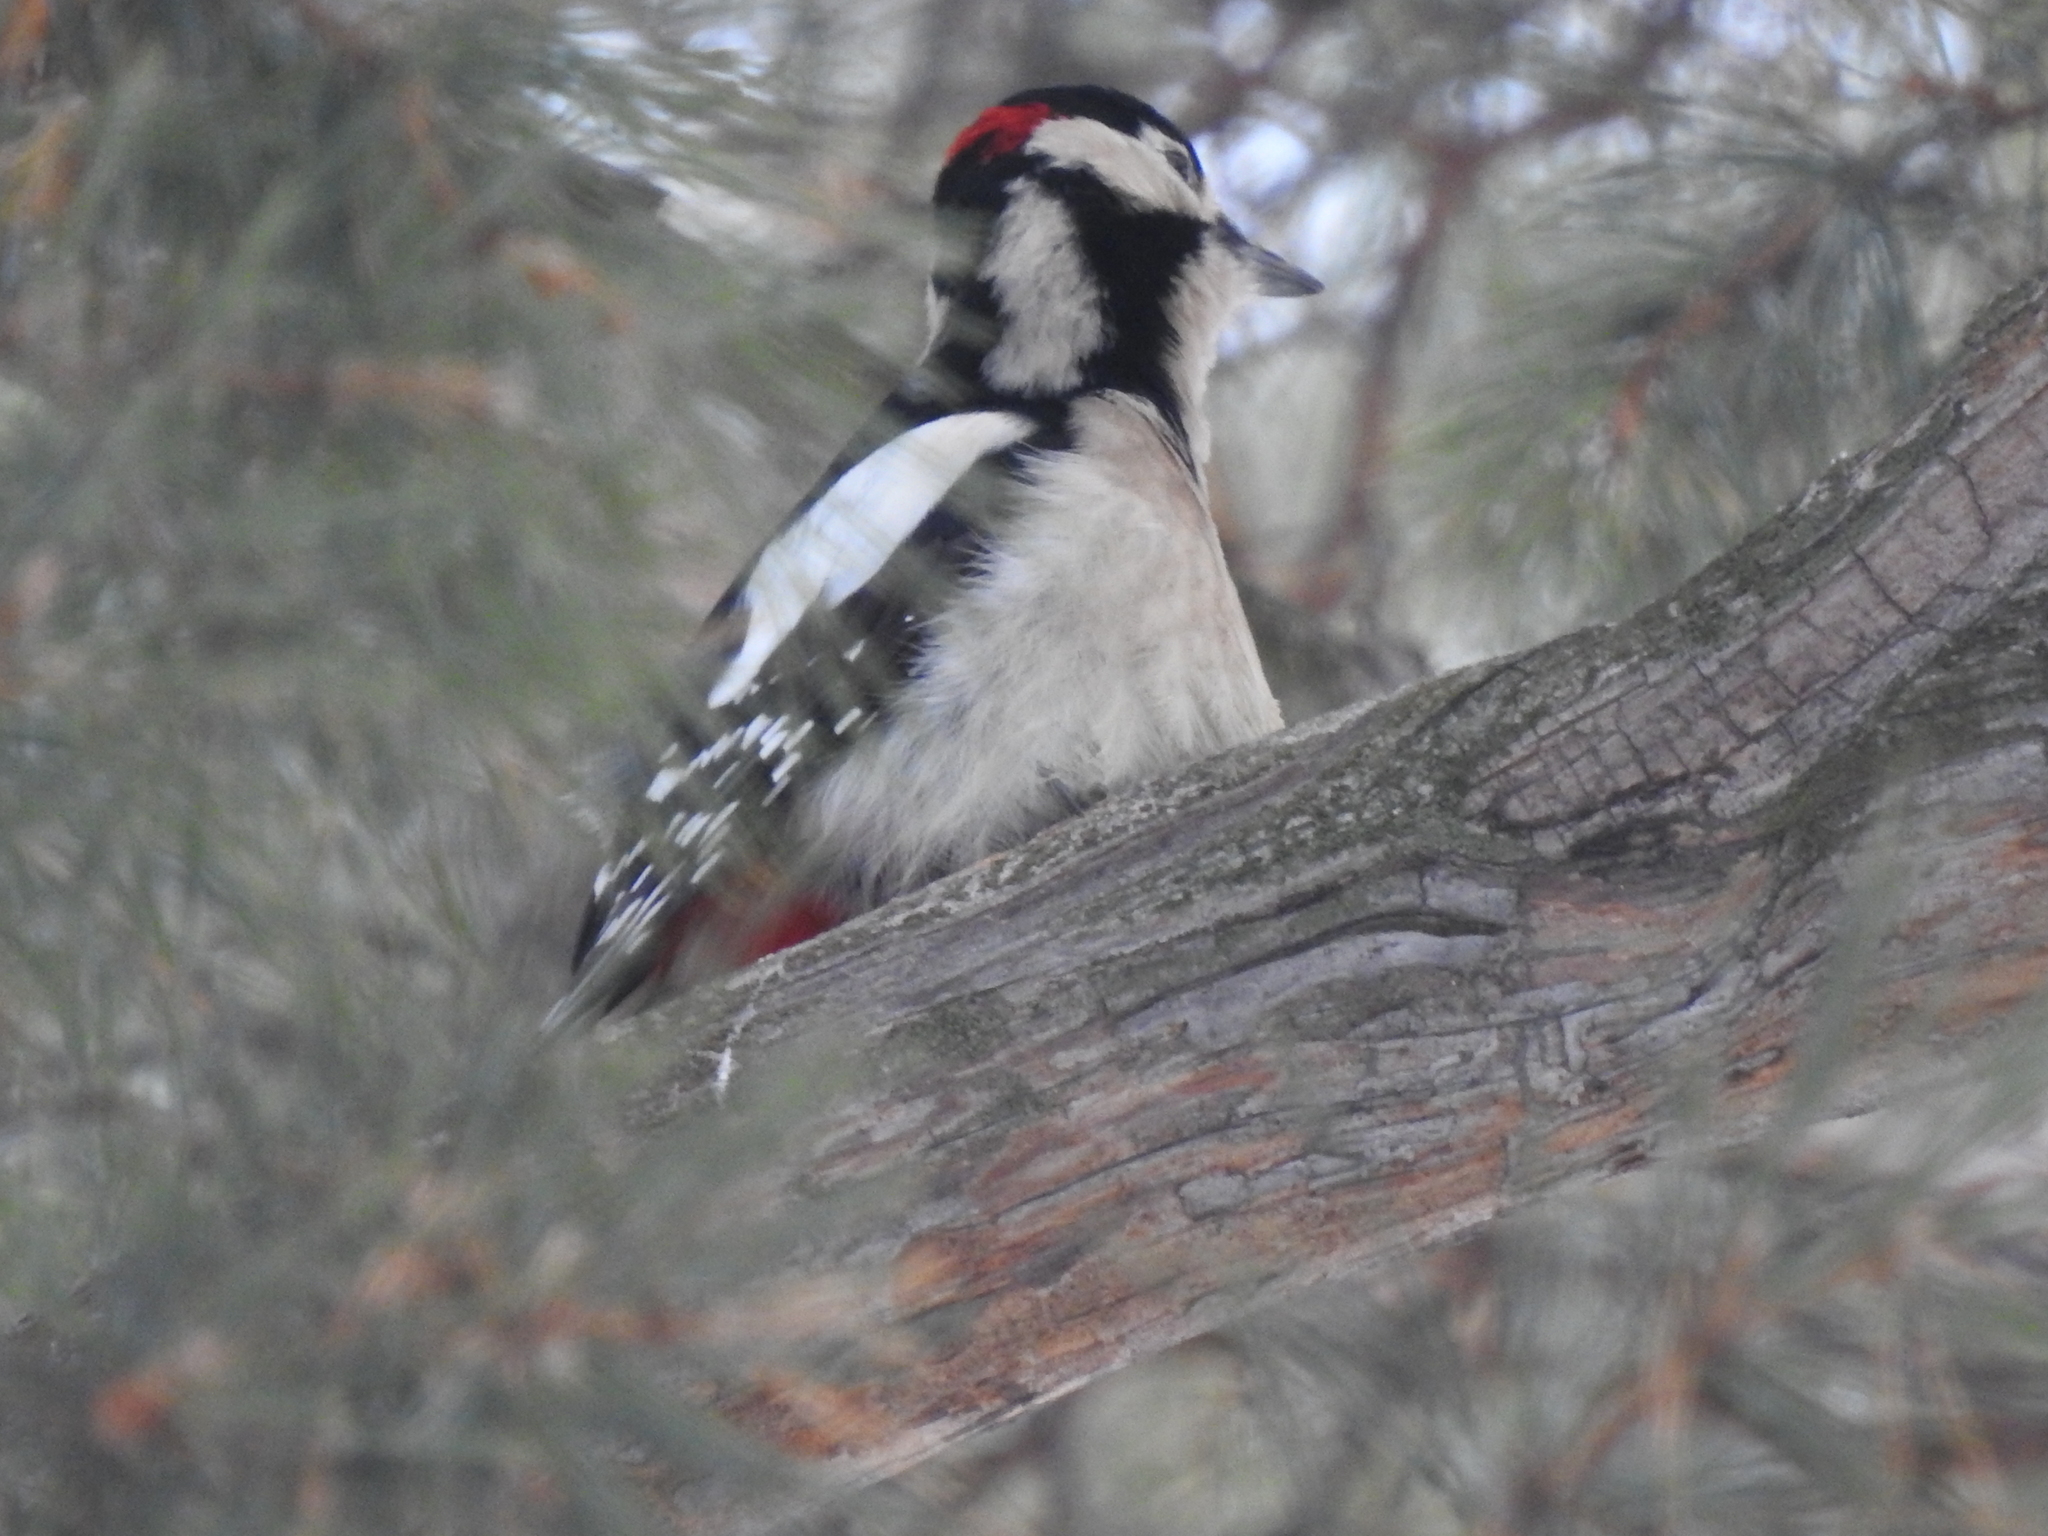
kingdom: Animalia
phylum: Chordata
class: Aves
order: Piciformes
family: Picidae
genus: Dendrocopos
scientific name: Dendrocopos major
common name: Great spotted woodpecker
